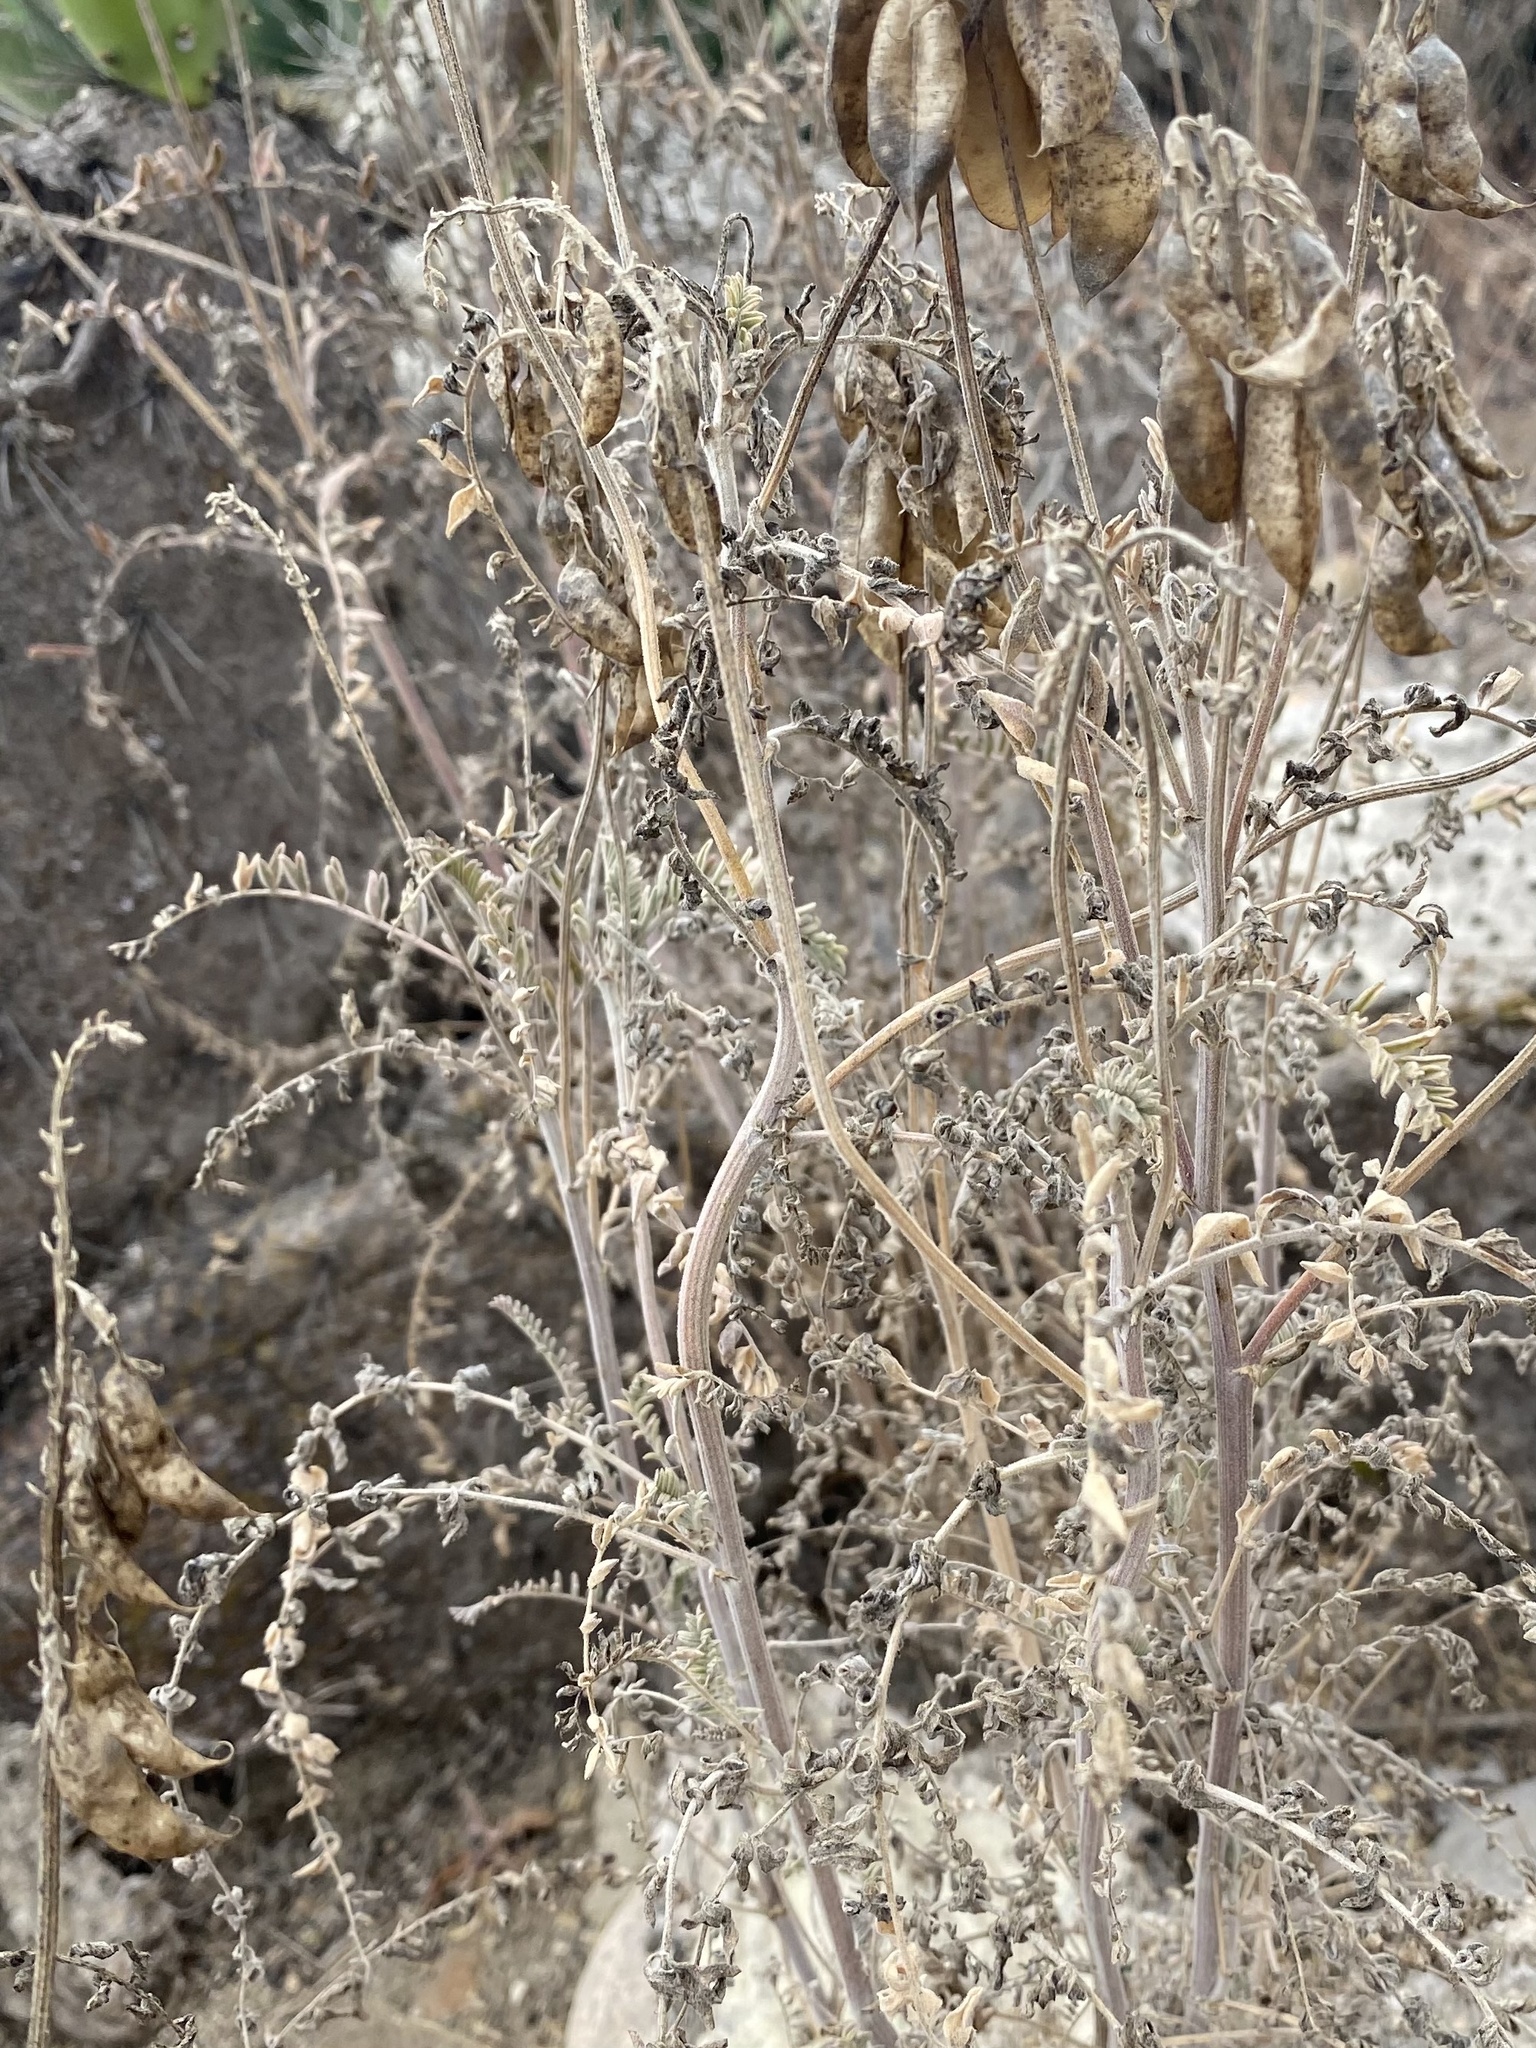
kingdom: Plantae
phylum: Tracheophyta
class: Magnoliopsida
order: Fabales
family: Fabaceae
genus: Astragalus
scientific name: Astragalus trichopodus
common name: Santa barbara milk-vetch
